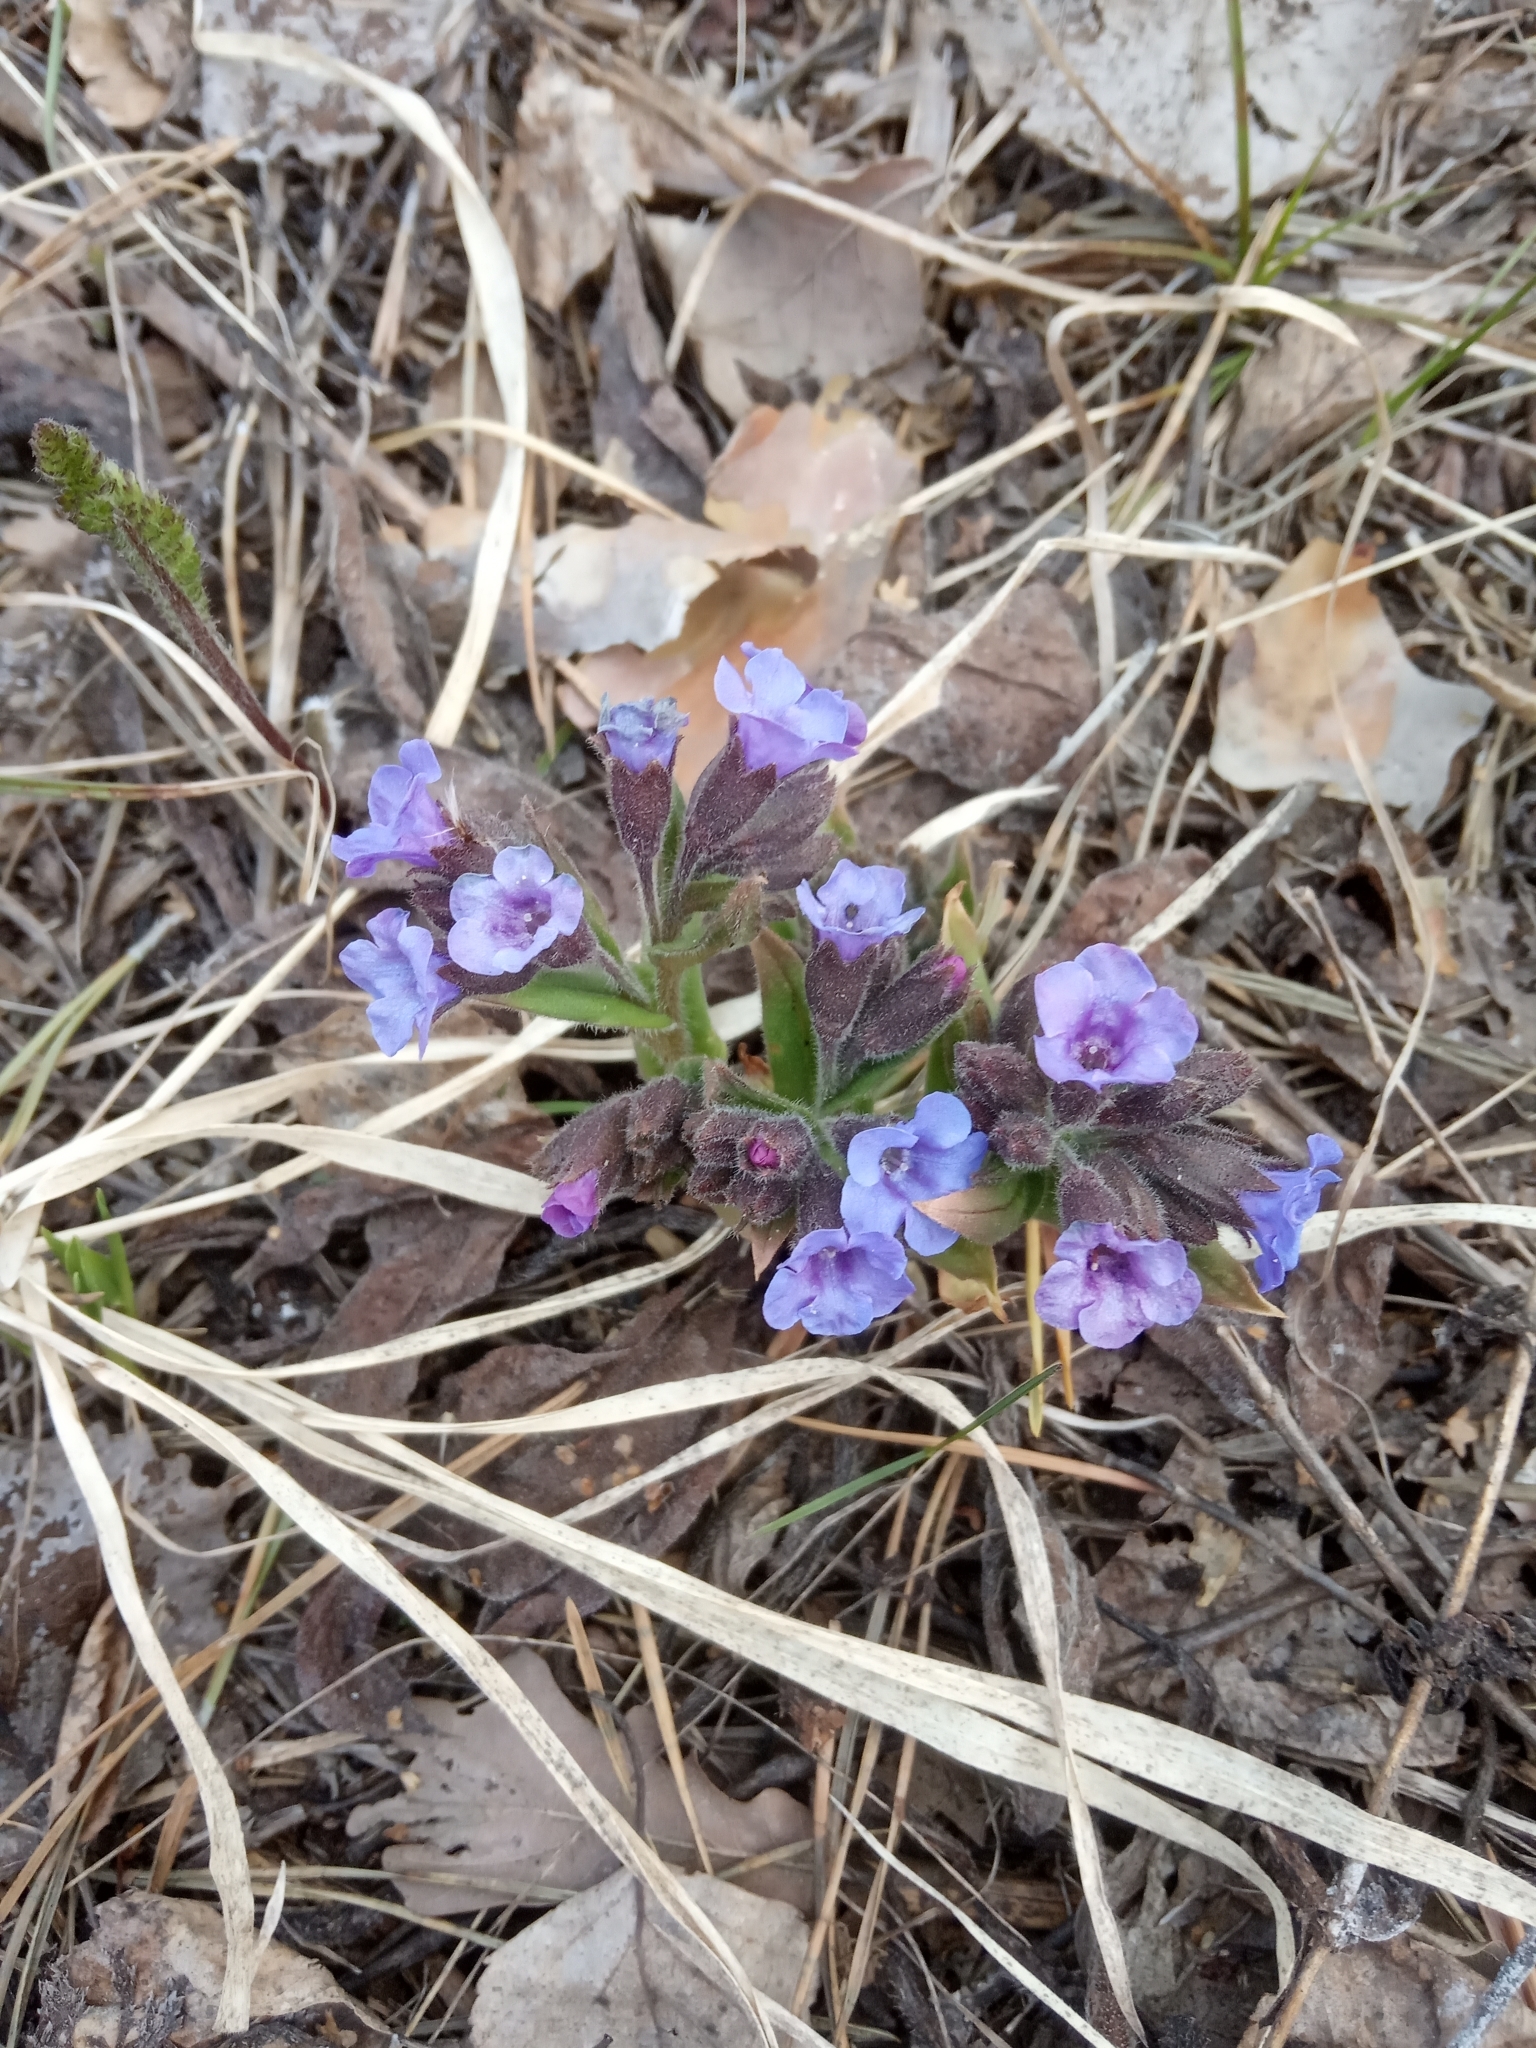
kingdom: Plantae
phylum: Tracheophyta
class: Magnoliopsida
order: Boraginales
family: Boraginaceae
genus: Pulmonaria
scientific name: Pulmonaria obscura
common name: Suffolk lungwort
